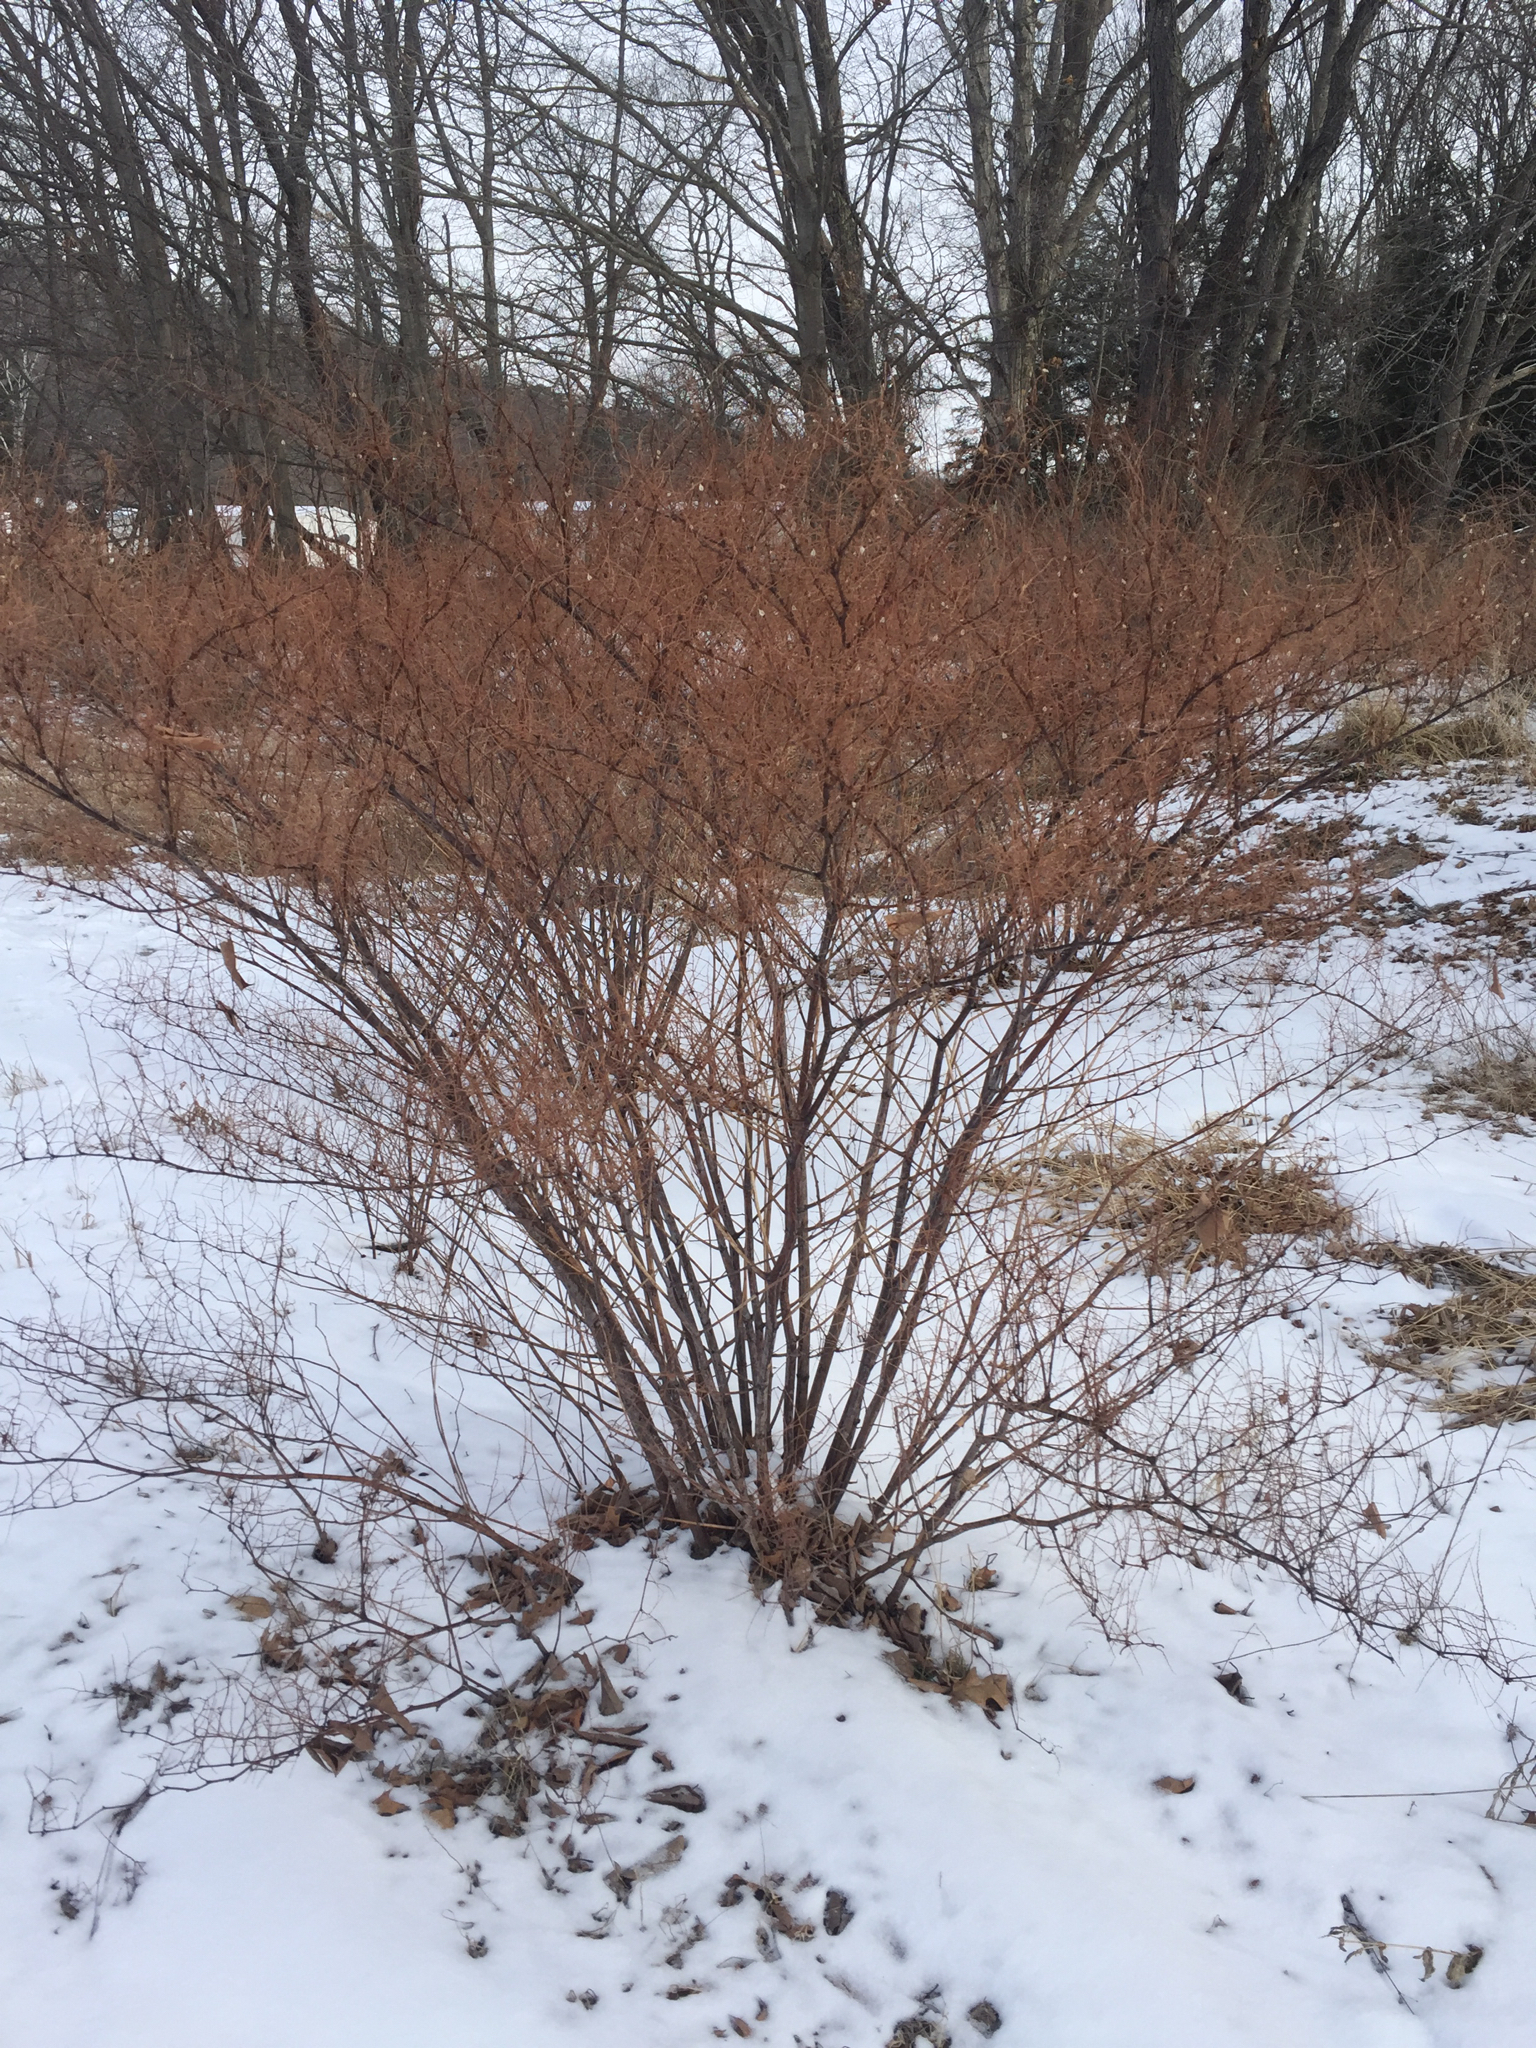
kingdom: Plantae
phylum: Tracheophyta
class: Magnoliopsida
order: Caryophyllales
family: Polygonaceae
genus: Reynoutria
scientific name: Reynoutria japonica
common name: Japanese knotweed
